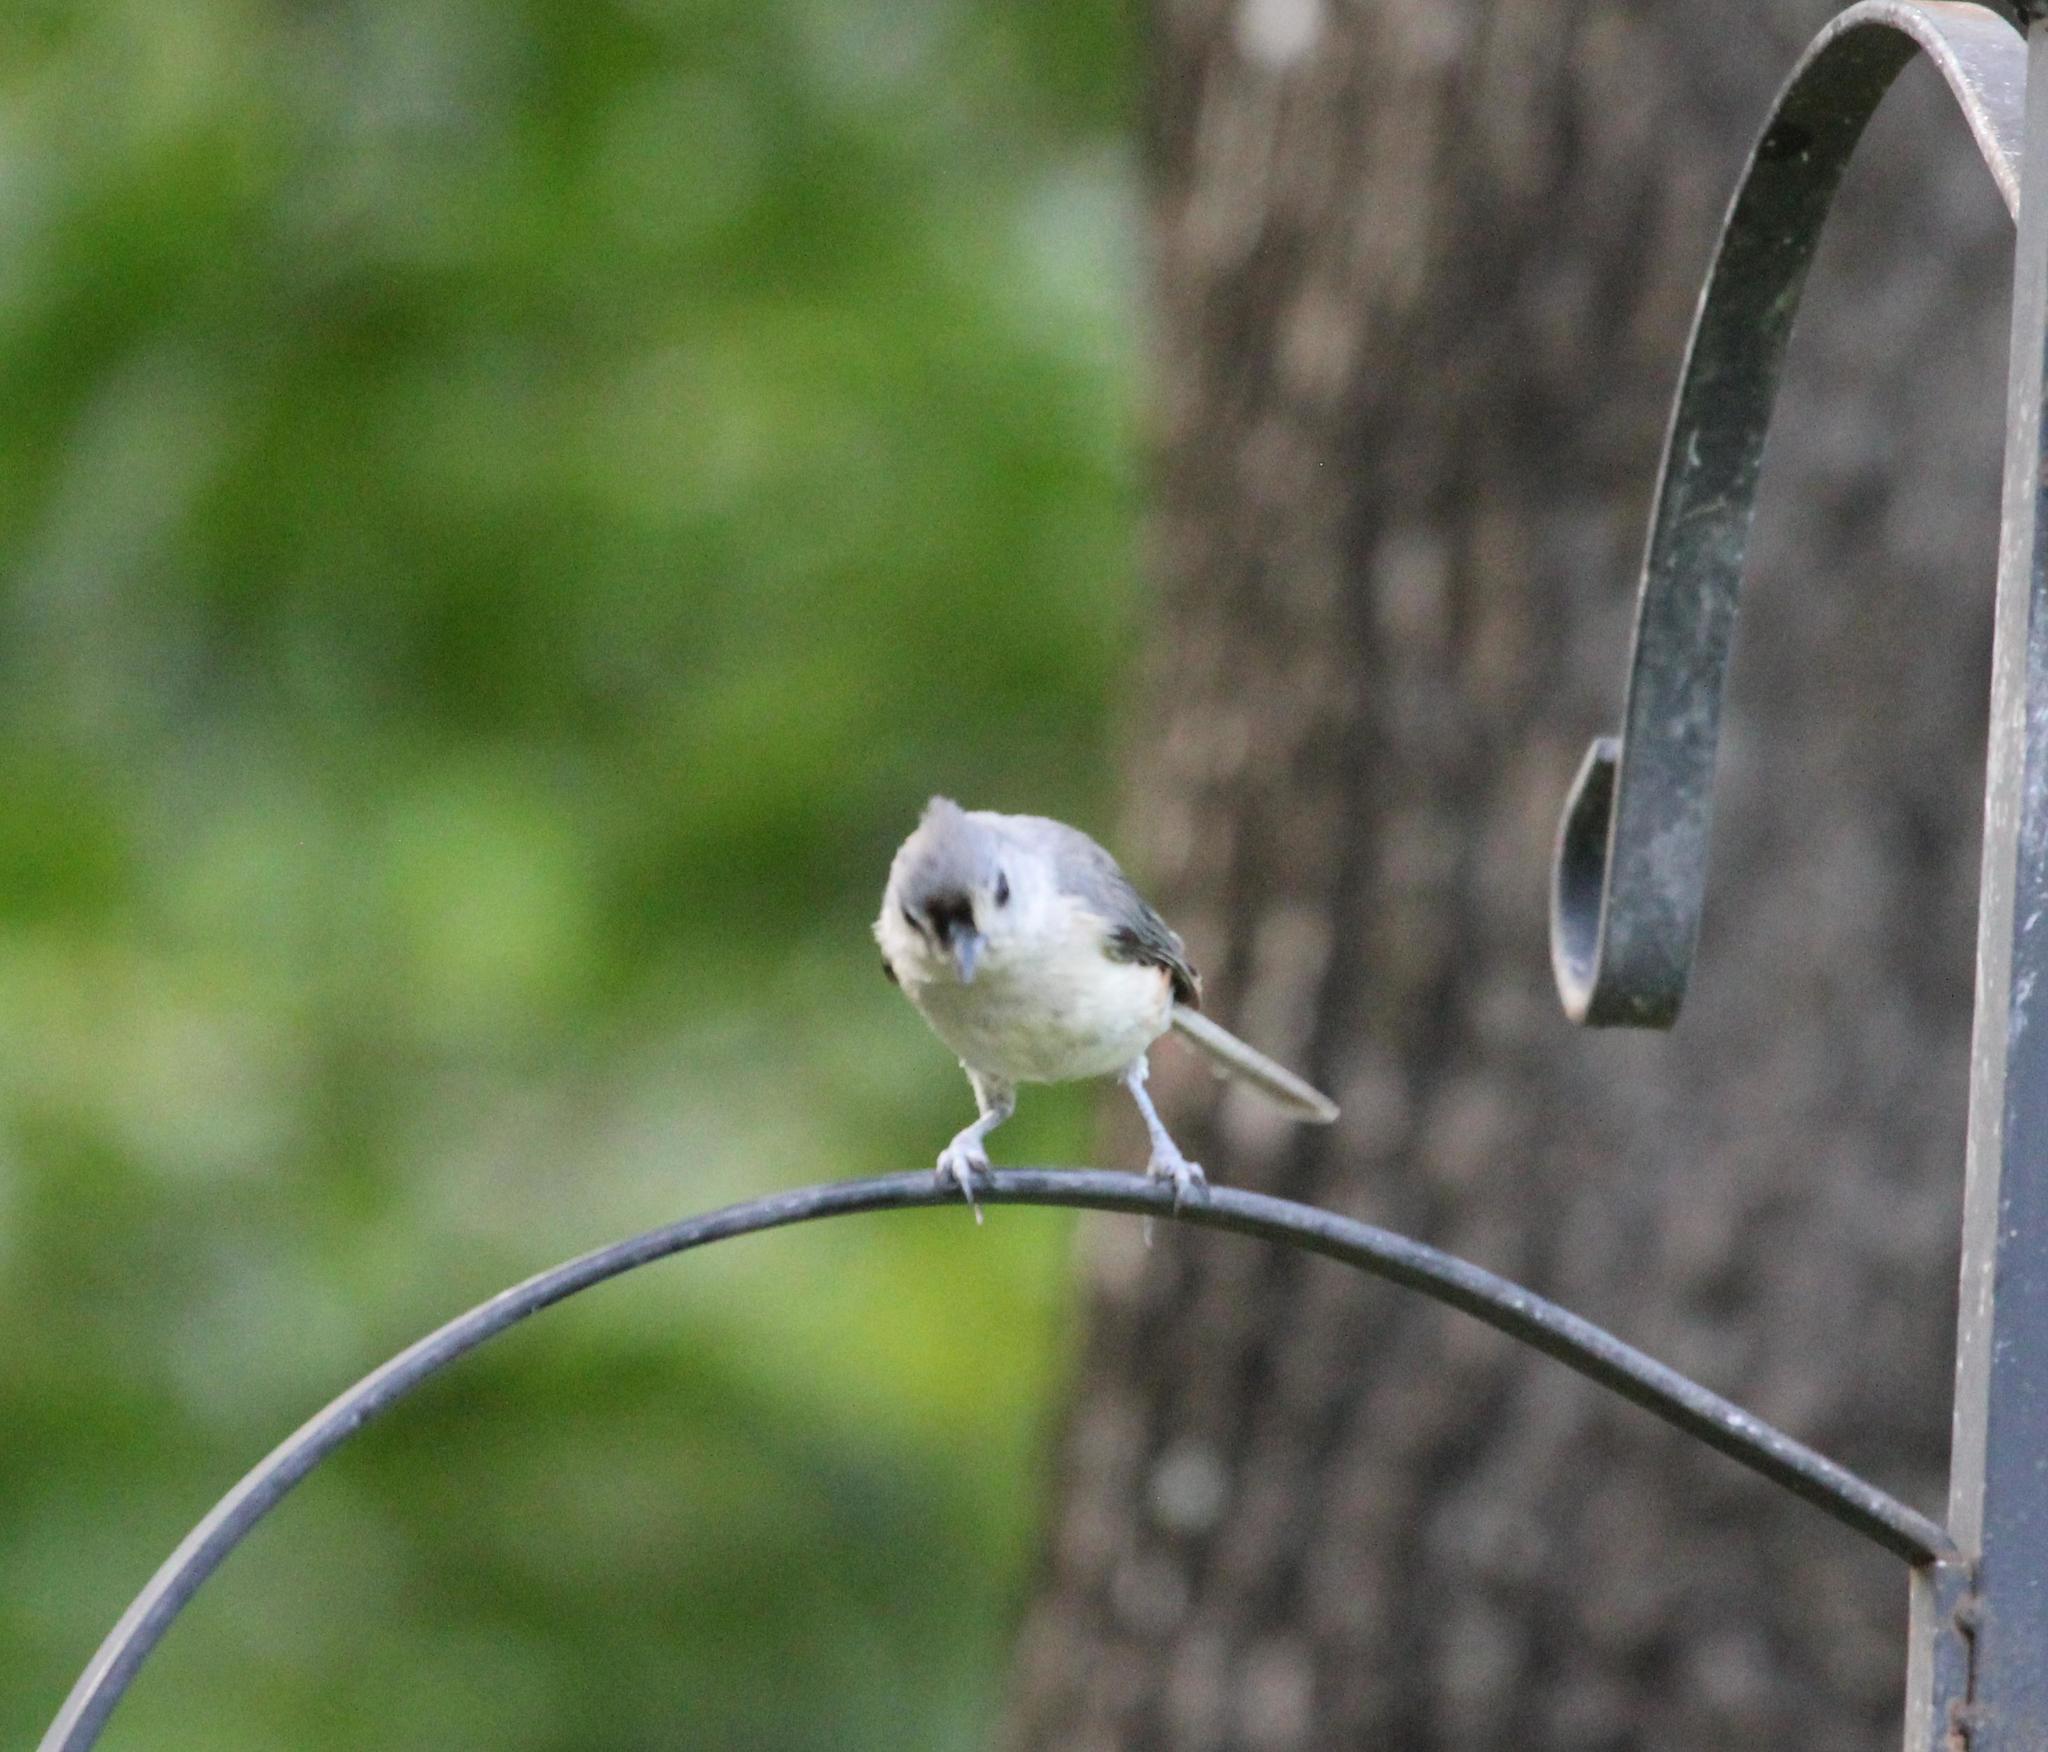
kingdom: Animalia
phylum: Chordata
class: Aves
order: Passeriformes
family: Paridae
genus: Baeolophus
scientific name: Baeolophus bicolor
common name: Tufted titmouse
